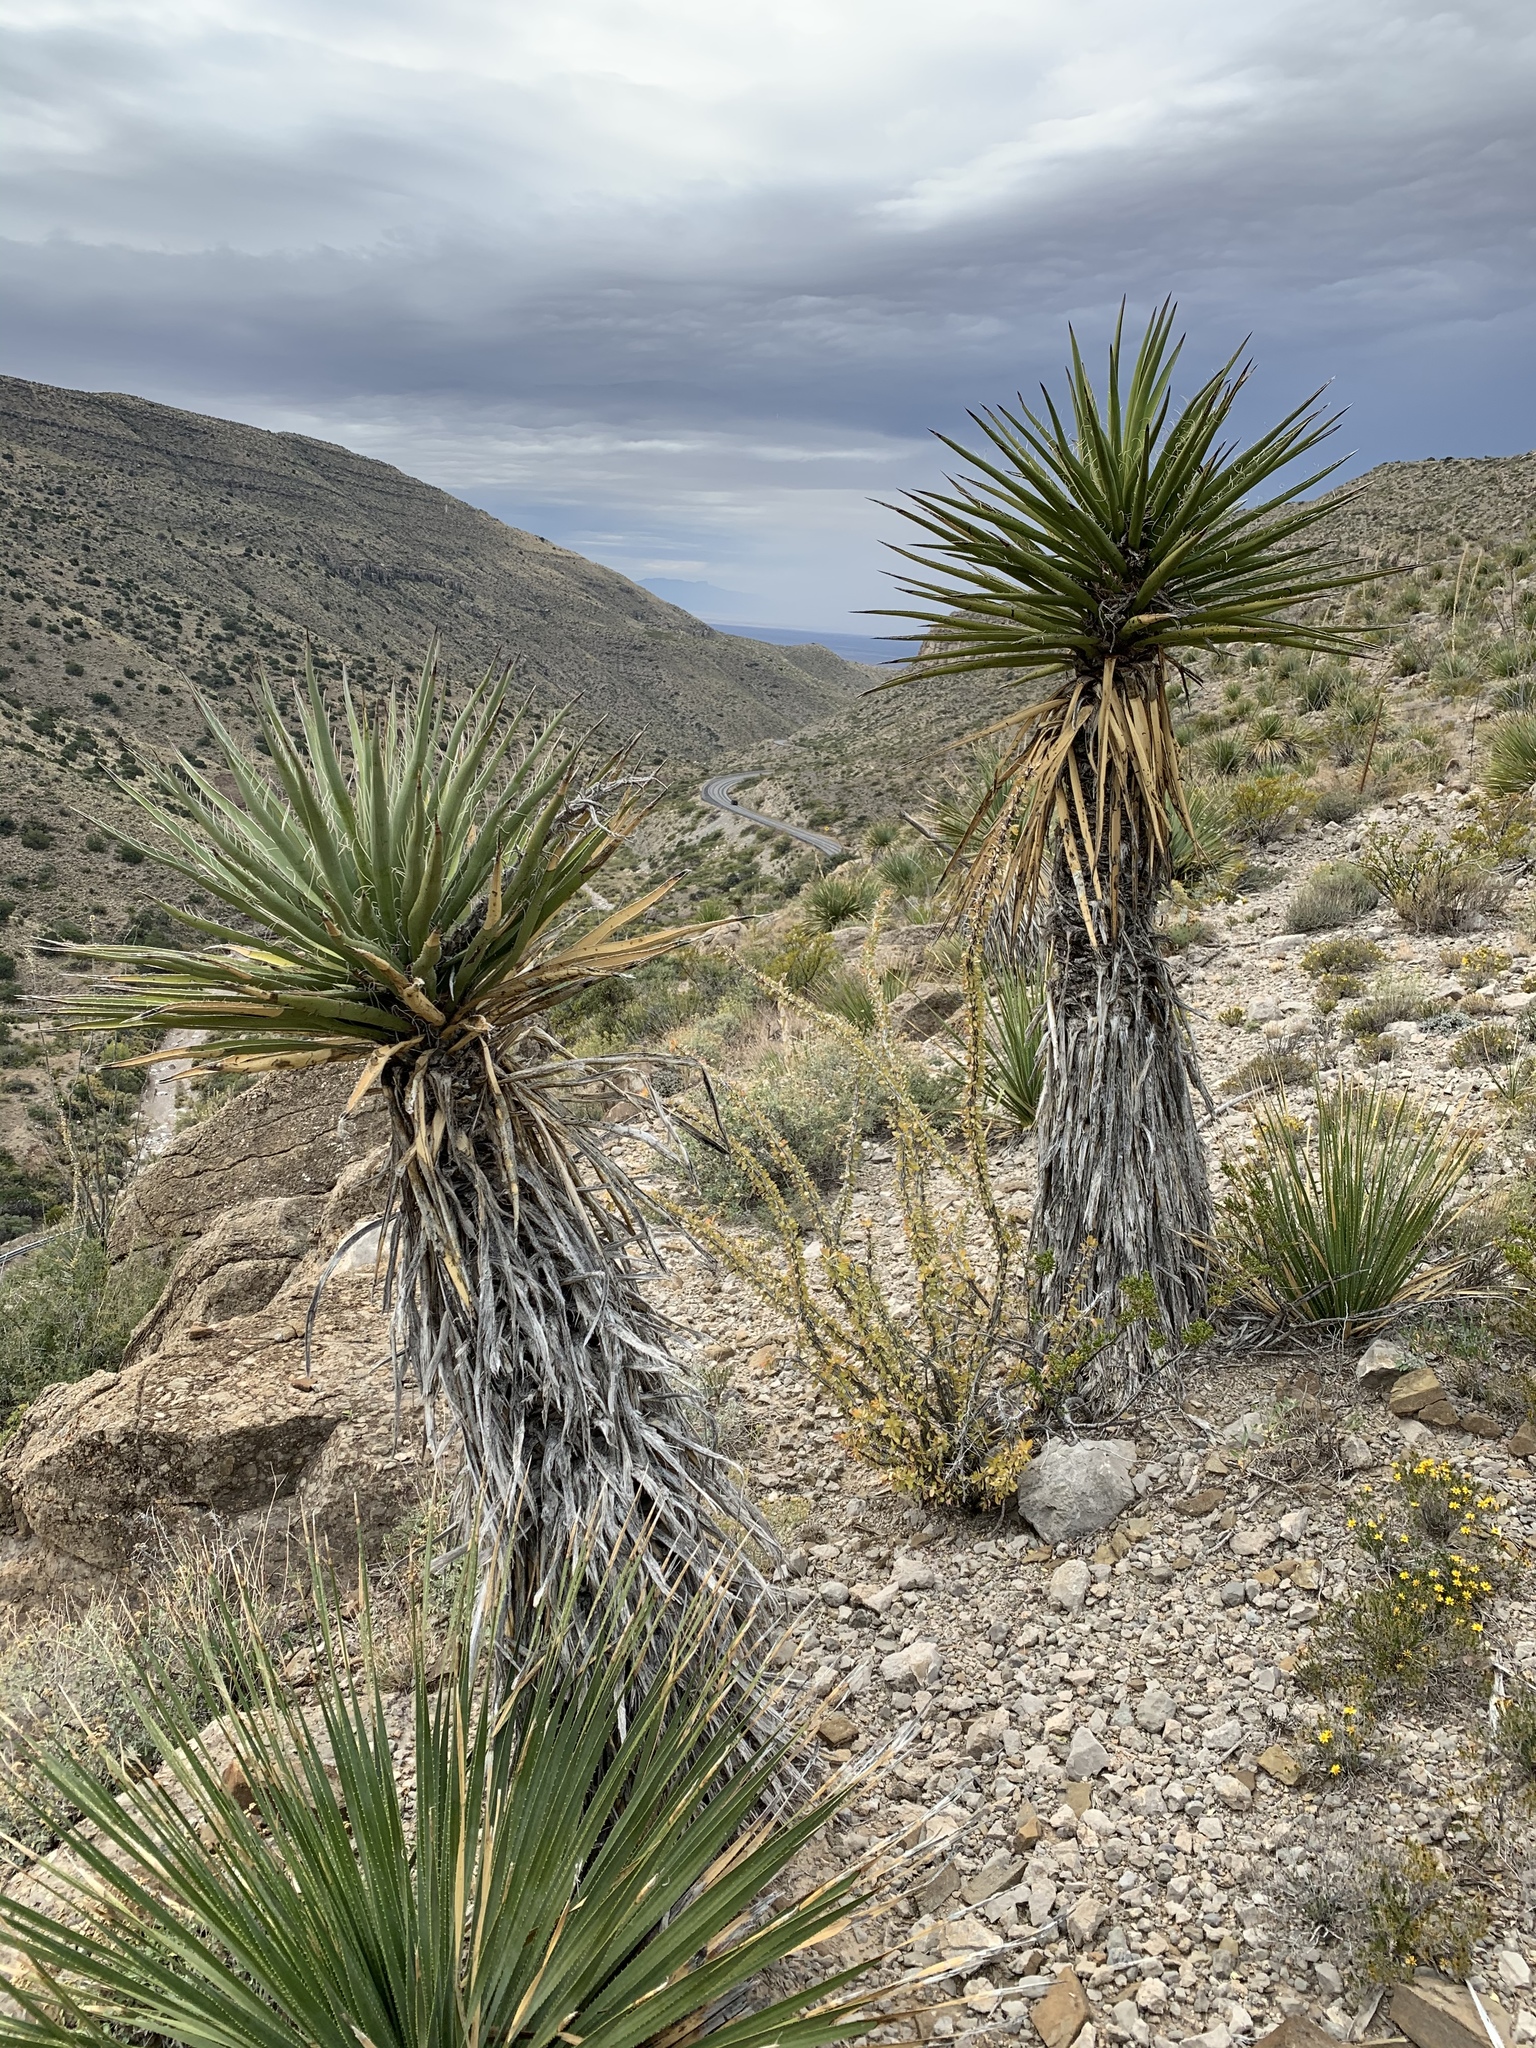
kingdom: Plantae
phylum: Tracheophyta
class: Liliopsida
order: Asparagales
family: Asparagaceae
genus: Yucca
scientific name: Yucca treculiana
